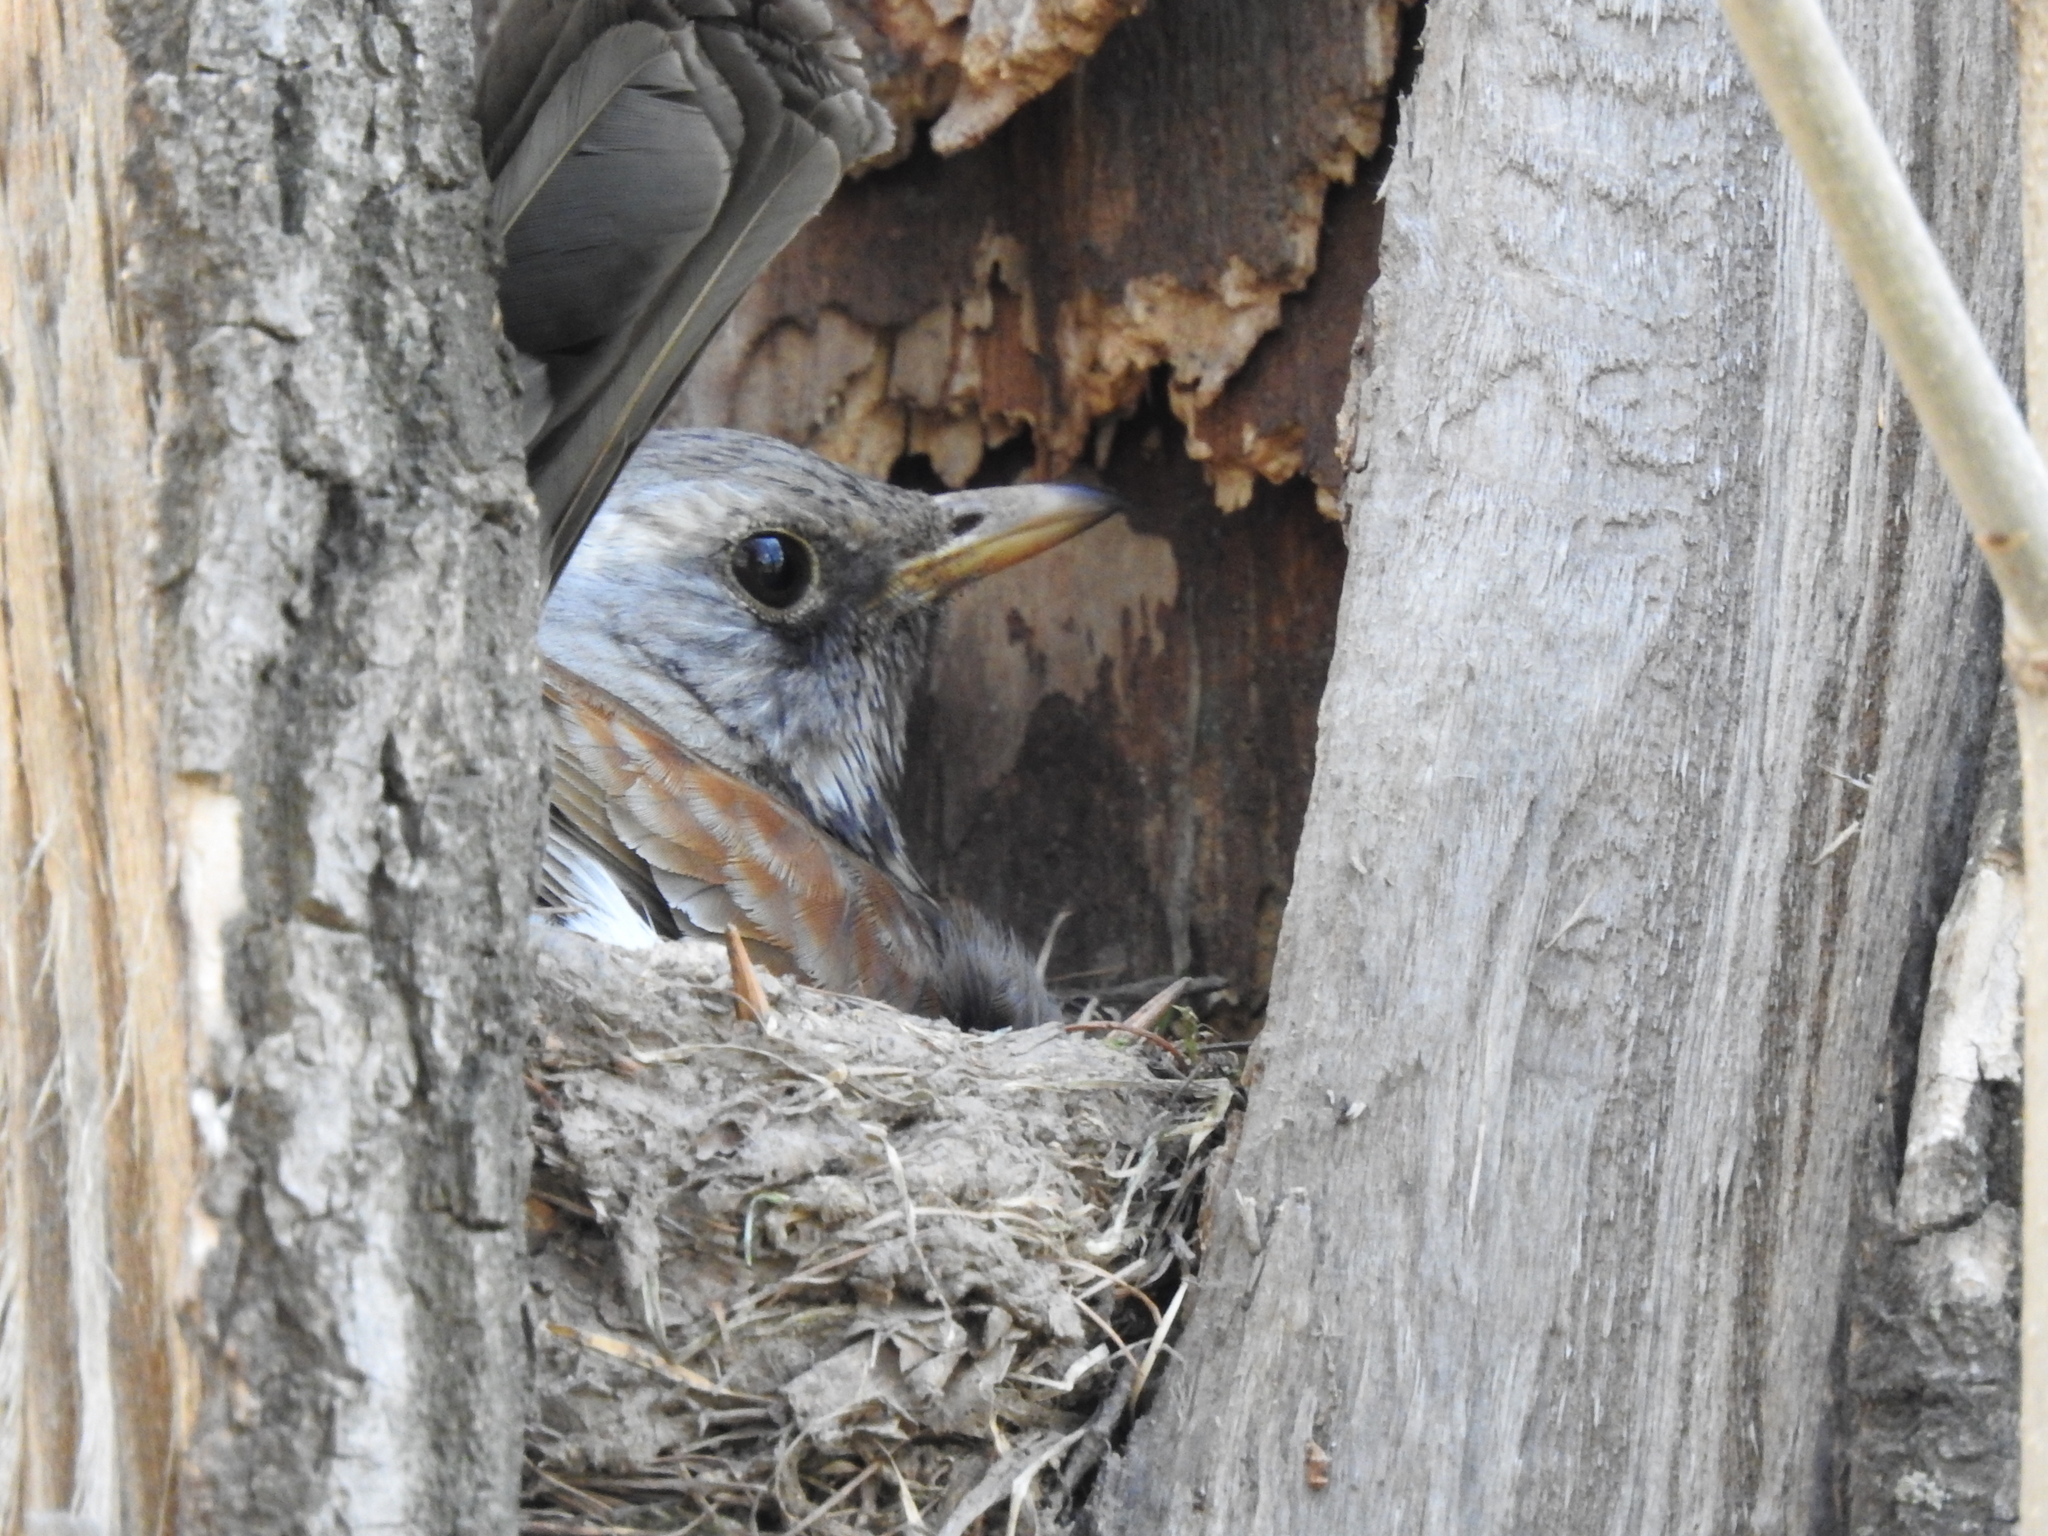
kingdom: Animalia
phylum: Chordata
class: Aves
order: Passeriformes
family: Turdidae
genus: Turdus
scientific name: Turdus pilaris
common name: Fieldfare
